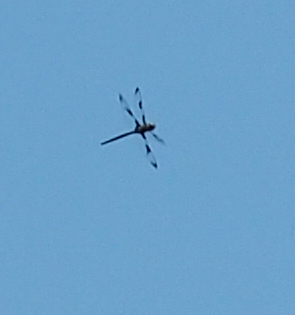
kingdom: Animalia
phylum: Arthropoda
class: Insecta
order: Odonata
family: Corduliidae
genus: Epitheca
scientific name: Epitheca princeps
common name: Prince baskettail
